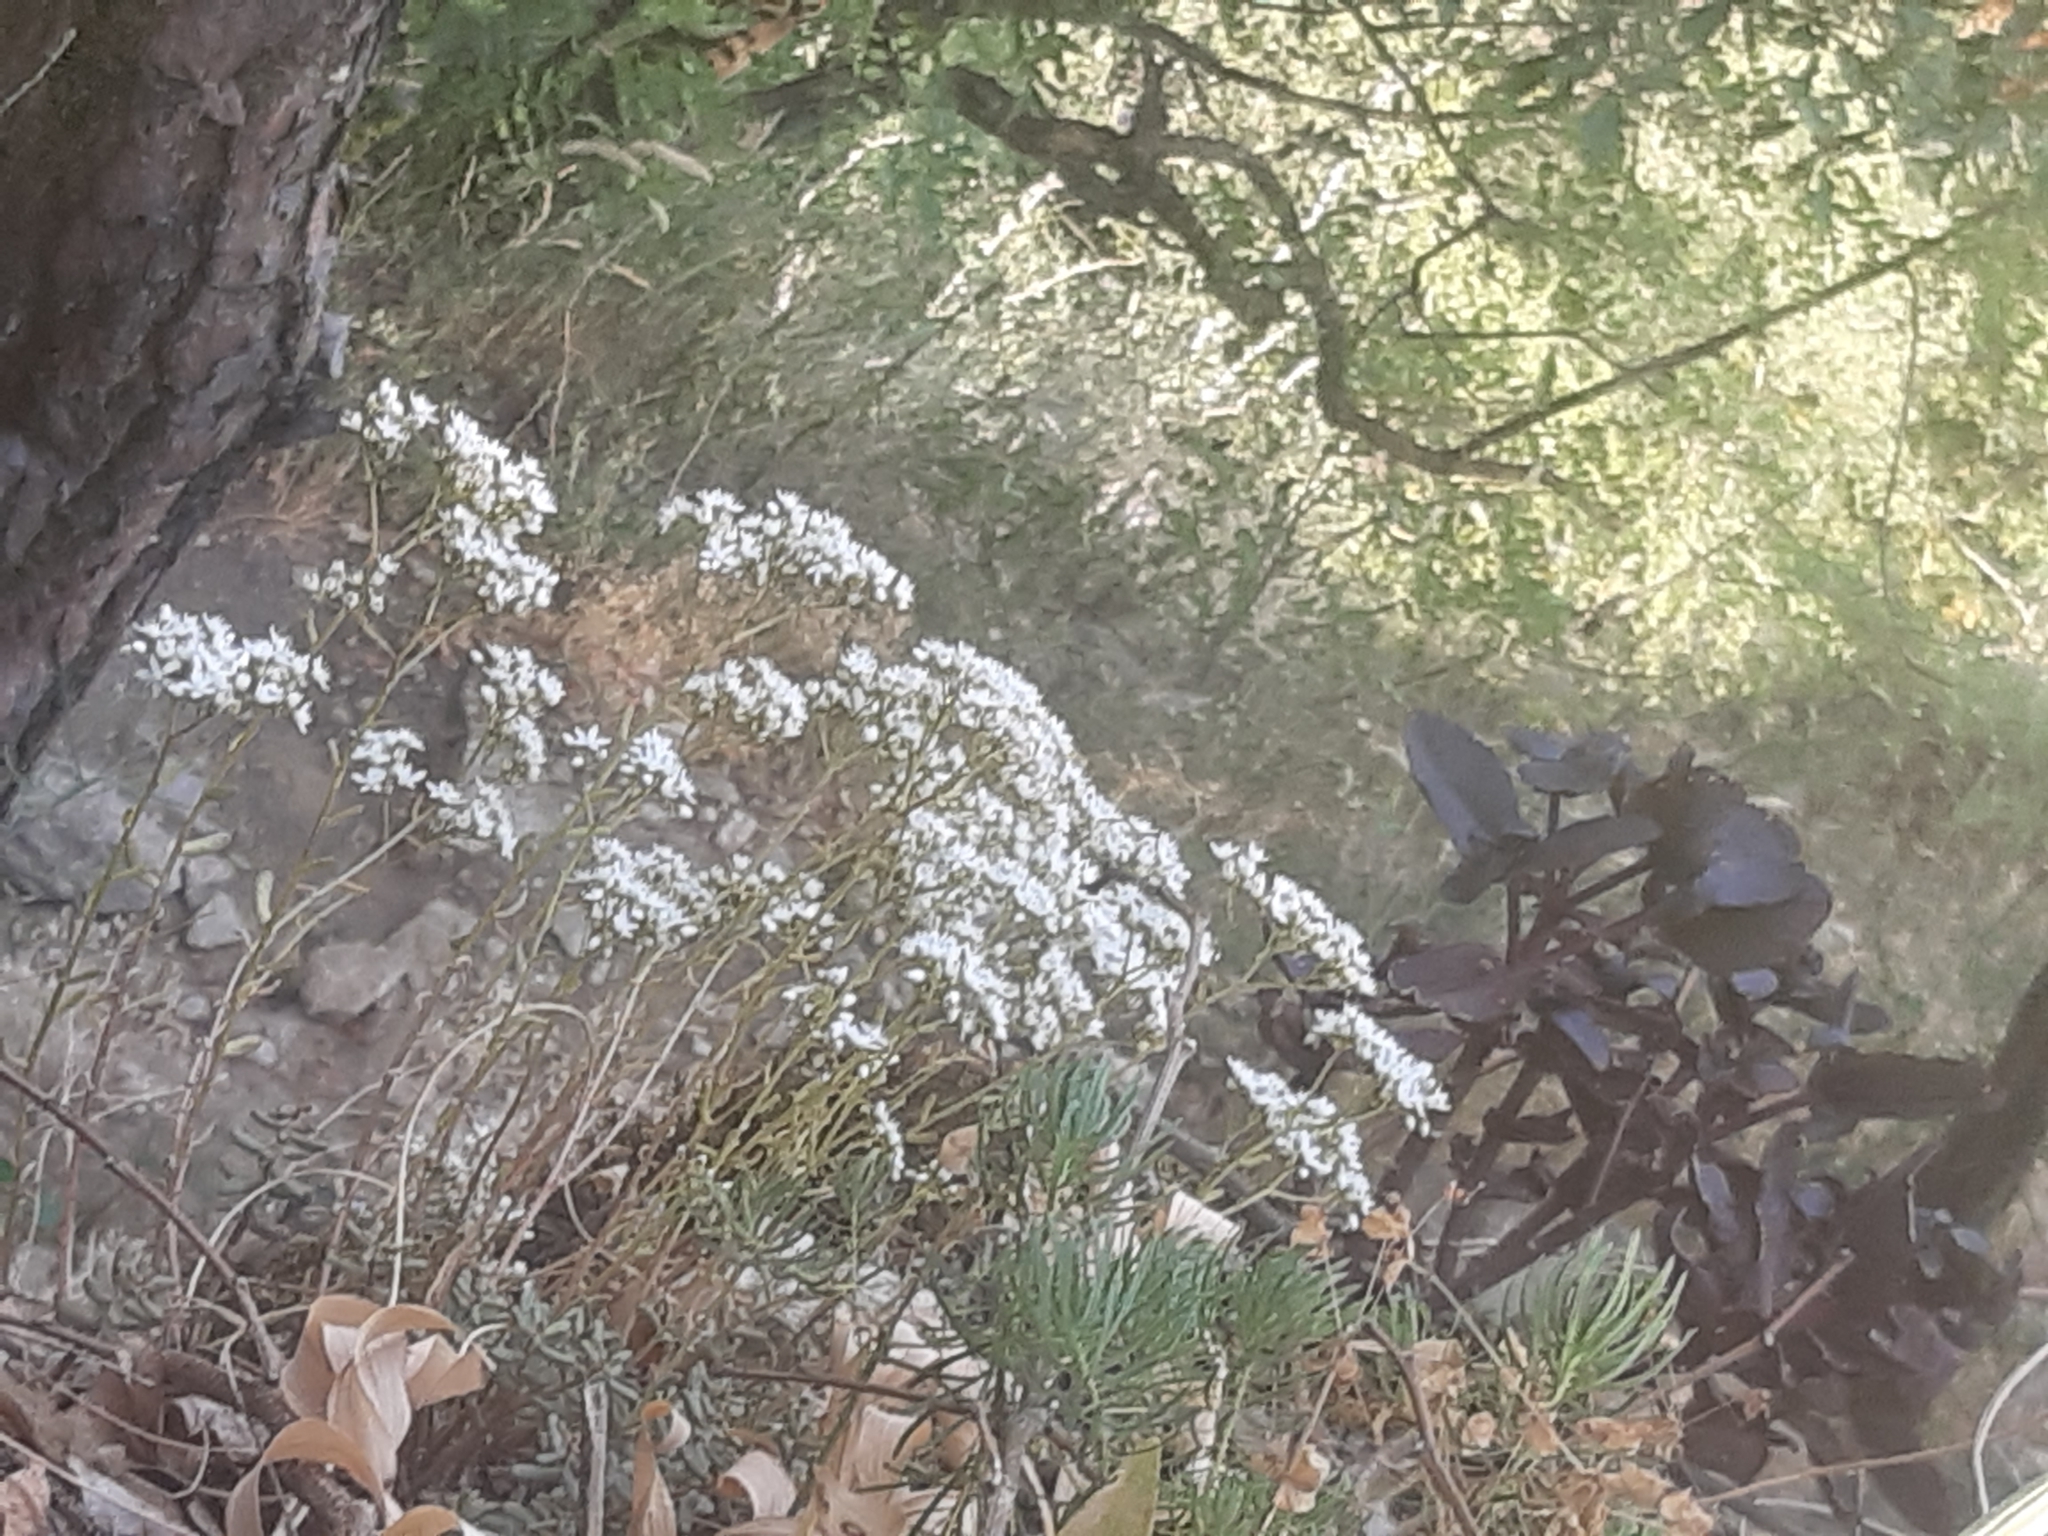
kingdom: Plantae
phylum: Tracheophyta
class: Magnoliopsida
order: Saxifragales
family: Crassulaceae
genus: Sedum
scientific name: Sedum album
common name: White stonecrop
